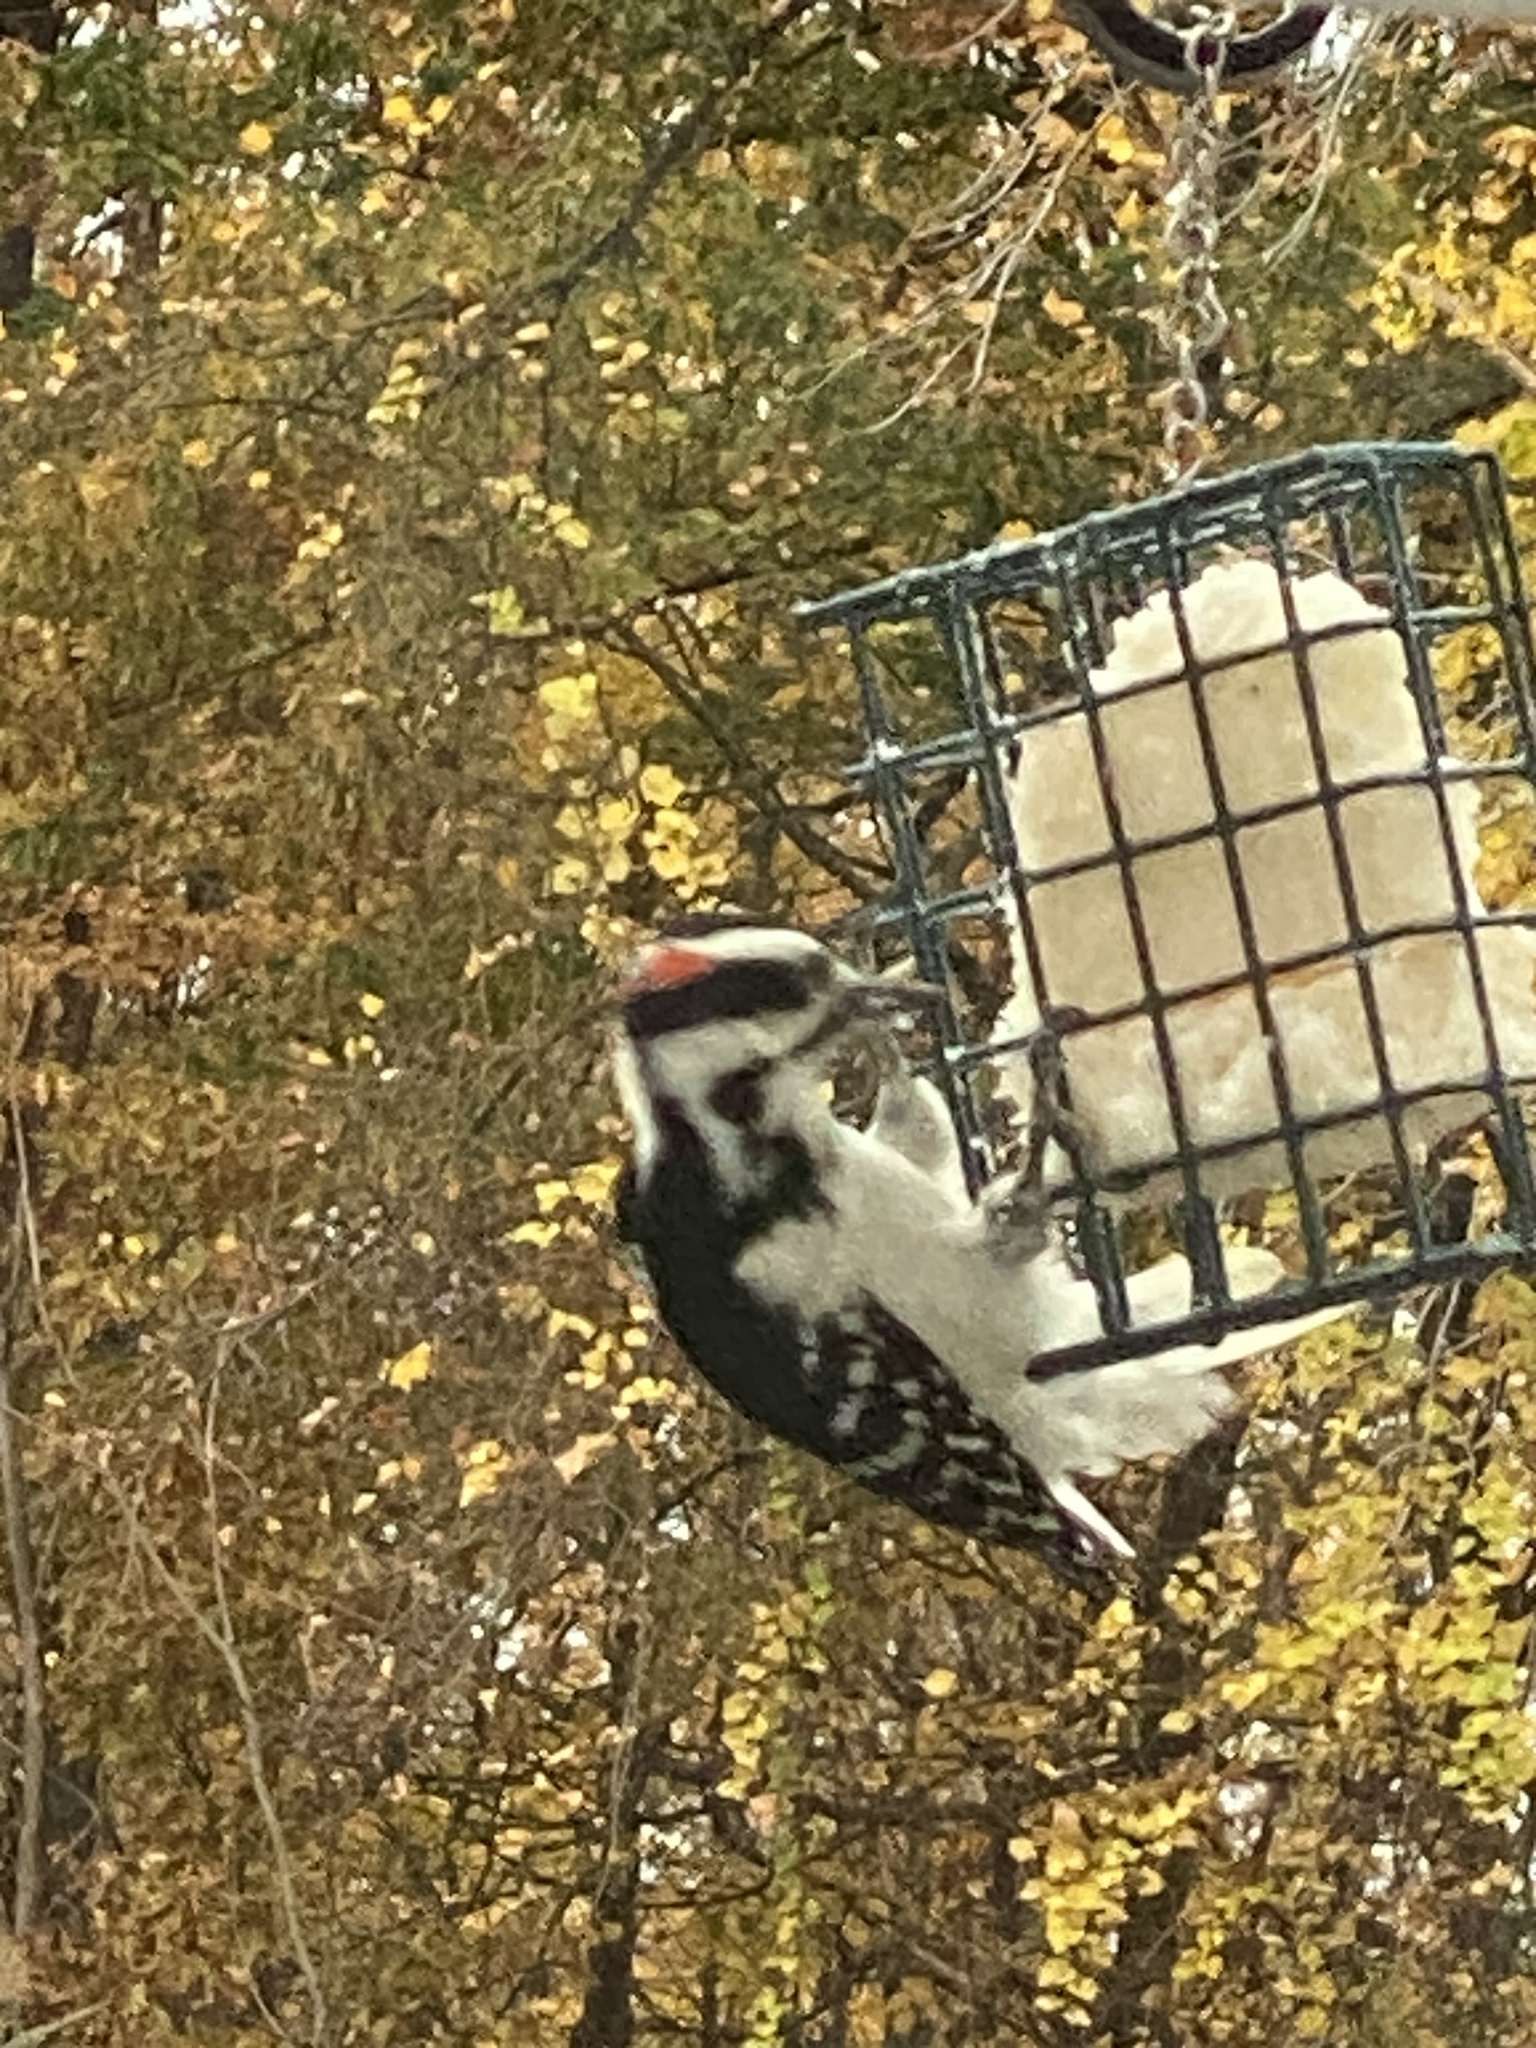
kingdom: Animalia
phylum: Chordata
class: Aves
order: Piciformes
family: Picidae
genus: Leuconotopicus
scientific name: Leuconotopicus villosus
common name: Hairy woodpecker
